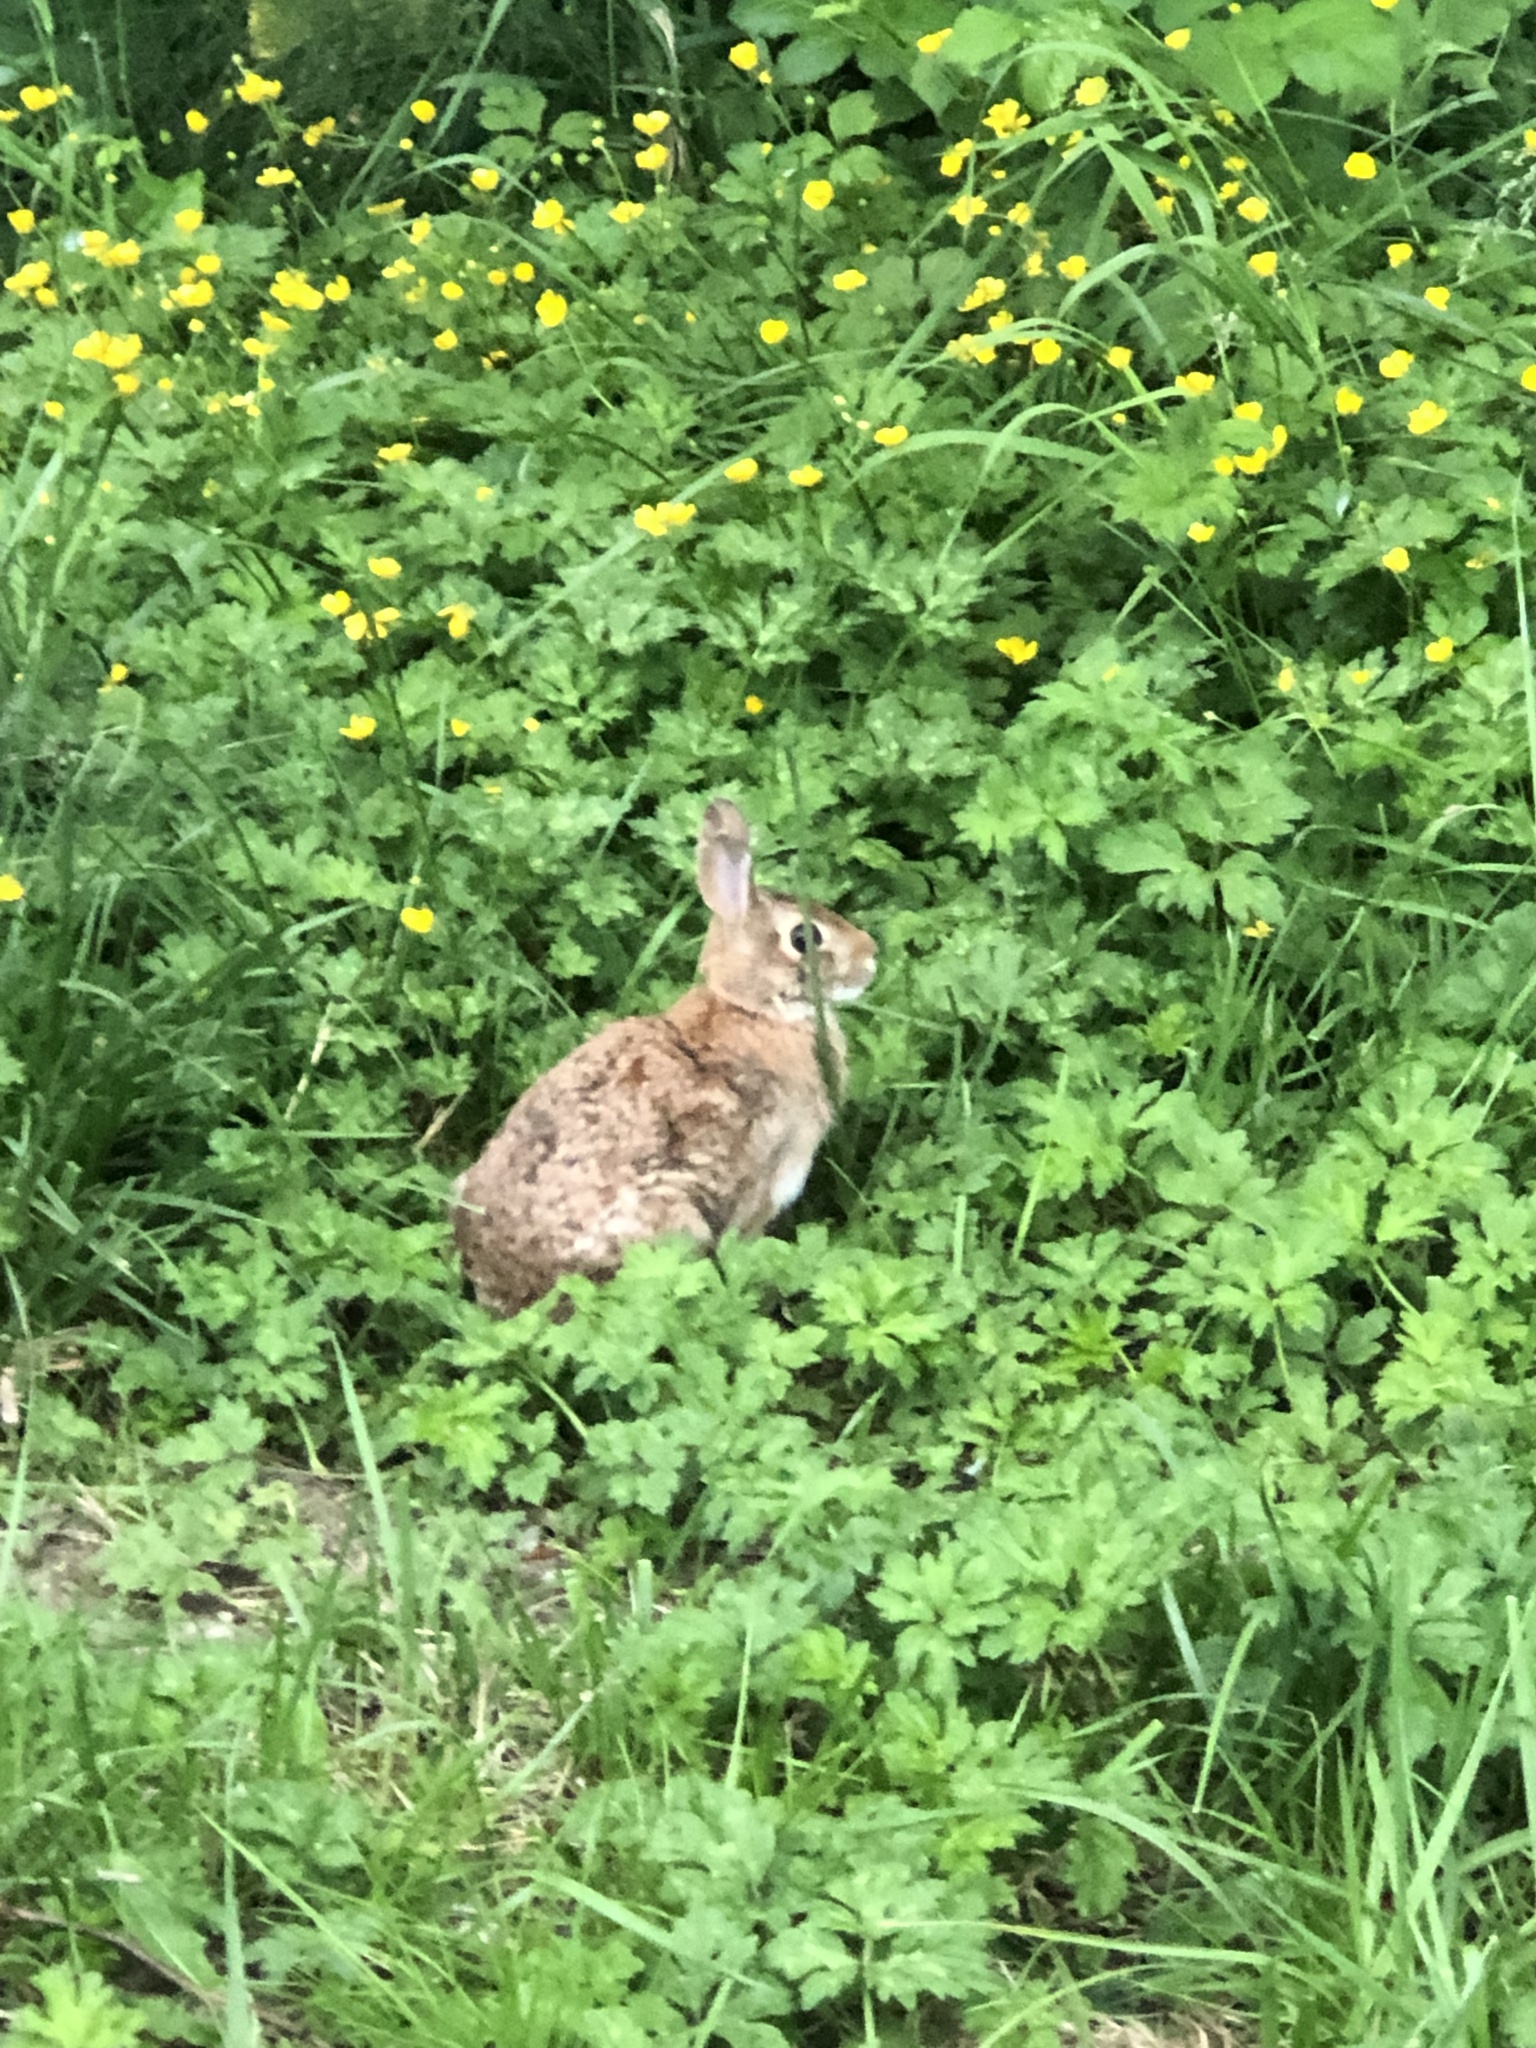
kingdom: Animalia
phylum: Chordata
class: Mammalia
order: Lagomorpha
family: Leporidae
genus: Sylvilagus
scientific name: Sylvilagus floridanus
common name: Eastern cottontail
